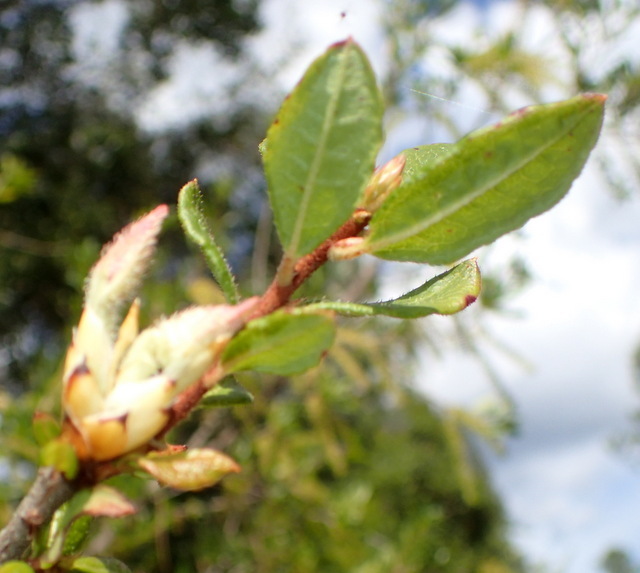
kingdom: Plantae
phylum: Tracheophyta
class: Magnoliopsida
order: Ericales
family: Ericaceae
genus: Rhododendron
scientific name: Rhododendron serrulatum
